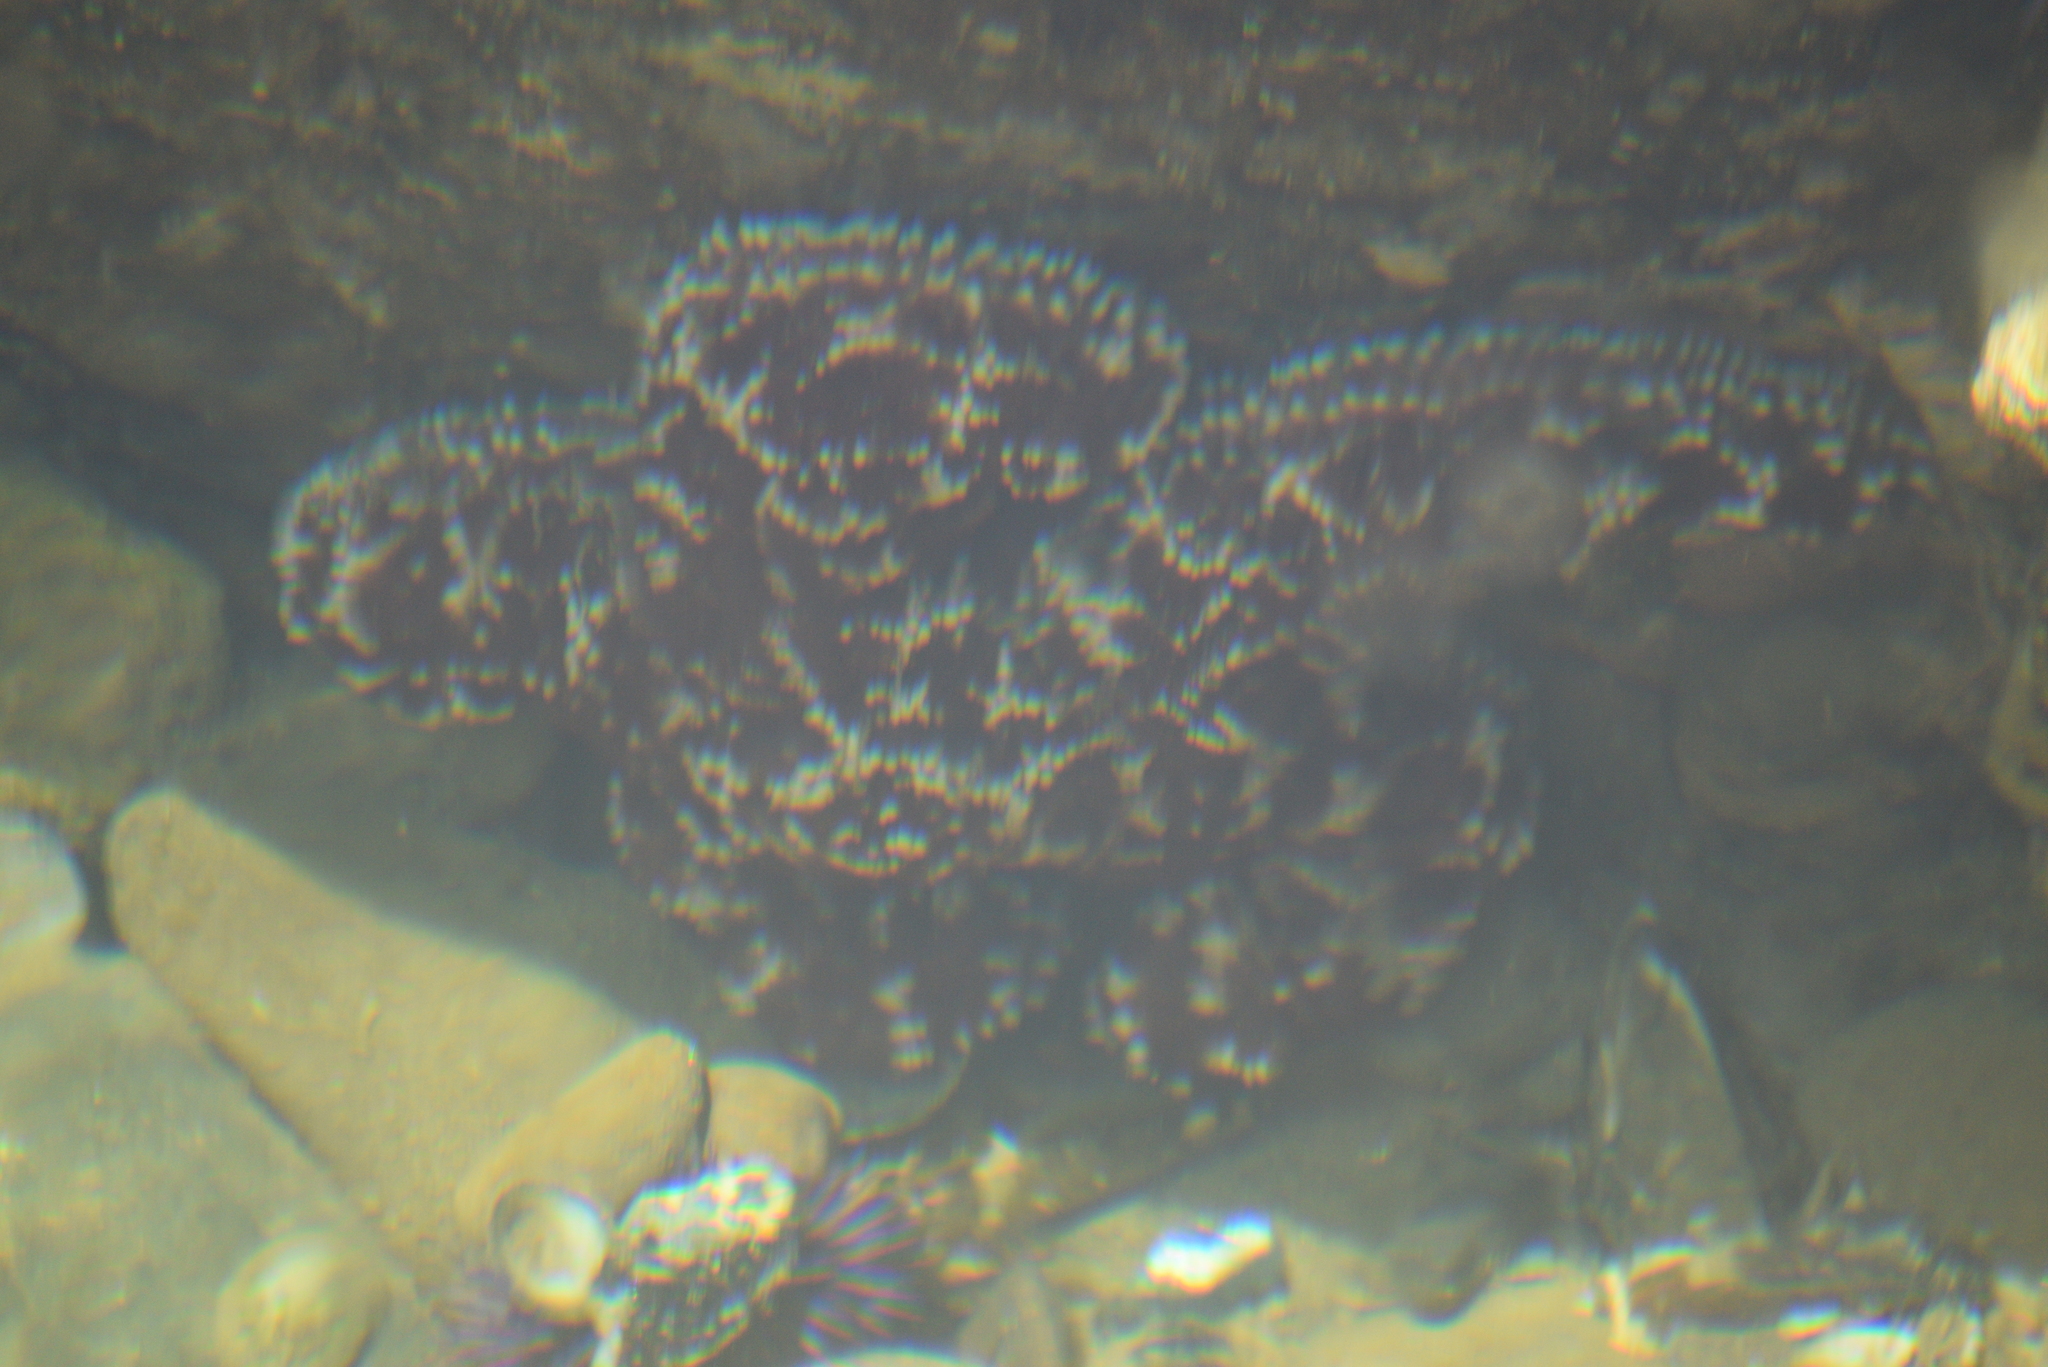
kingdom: Animalia
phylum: Echinodermata
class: Asteroidea
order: Forcipulatida
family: Asteriidae
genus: Pisaster
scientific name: Pisaster ochraceus
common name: Ochre stars
